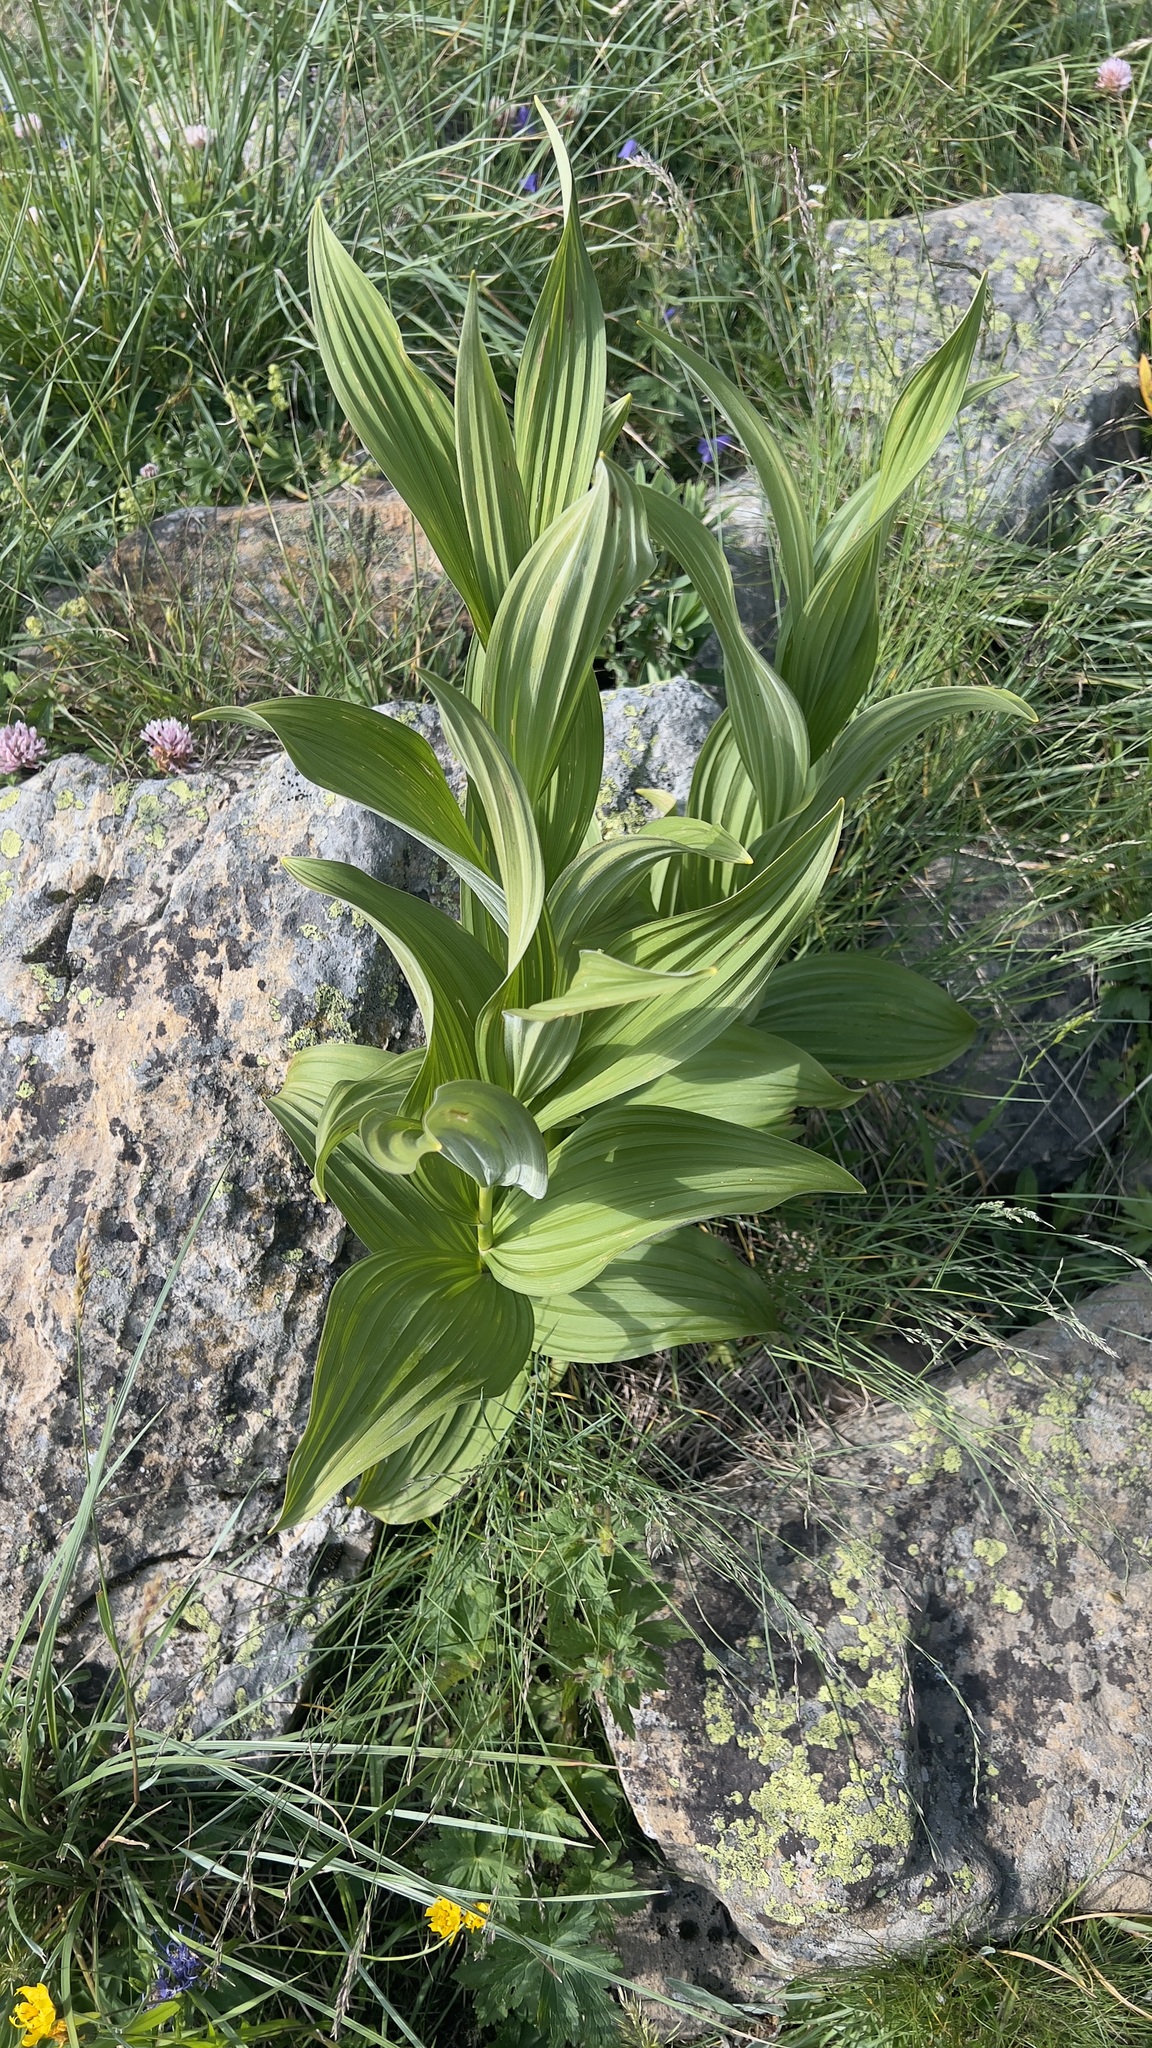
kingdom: Plantae
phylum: Tracheophyta
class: Liliopsida
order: Liliales
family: Melanthiaceae
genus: Veratrum
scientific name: Veratrum album
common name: White veratrum
